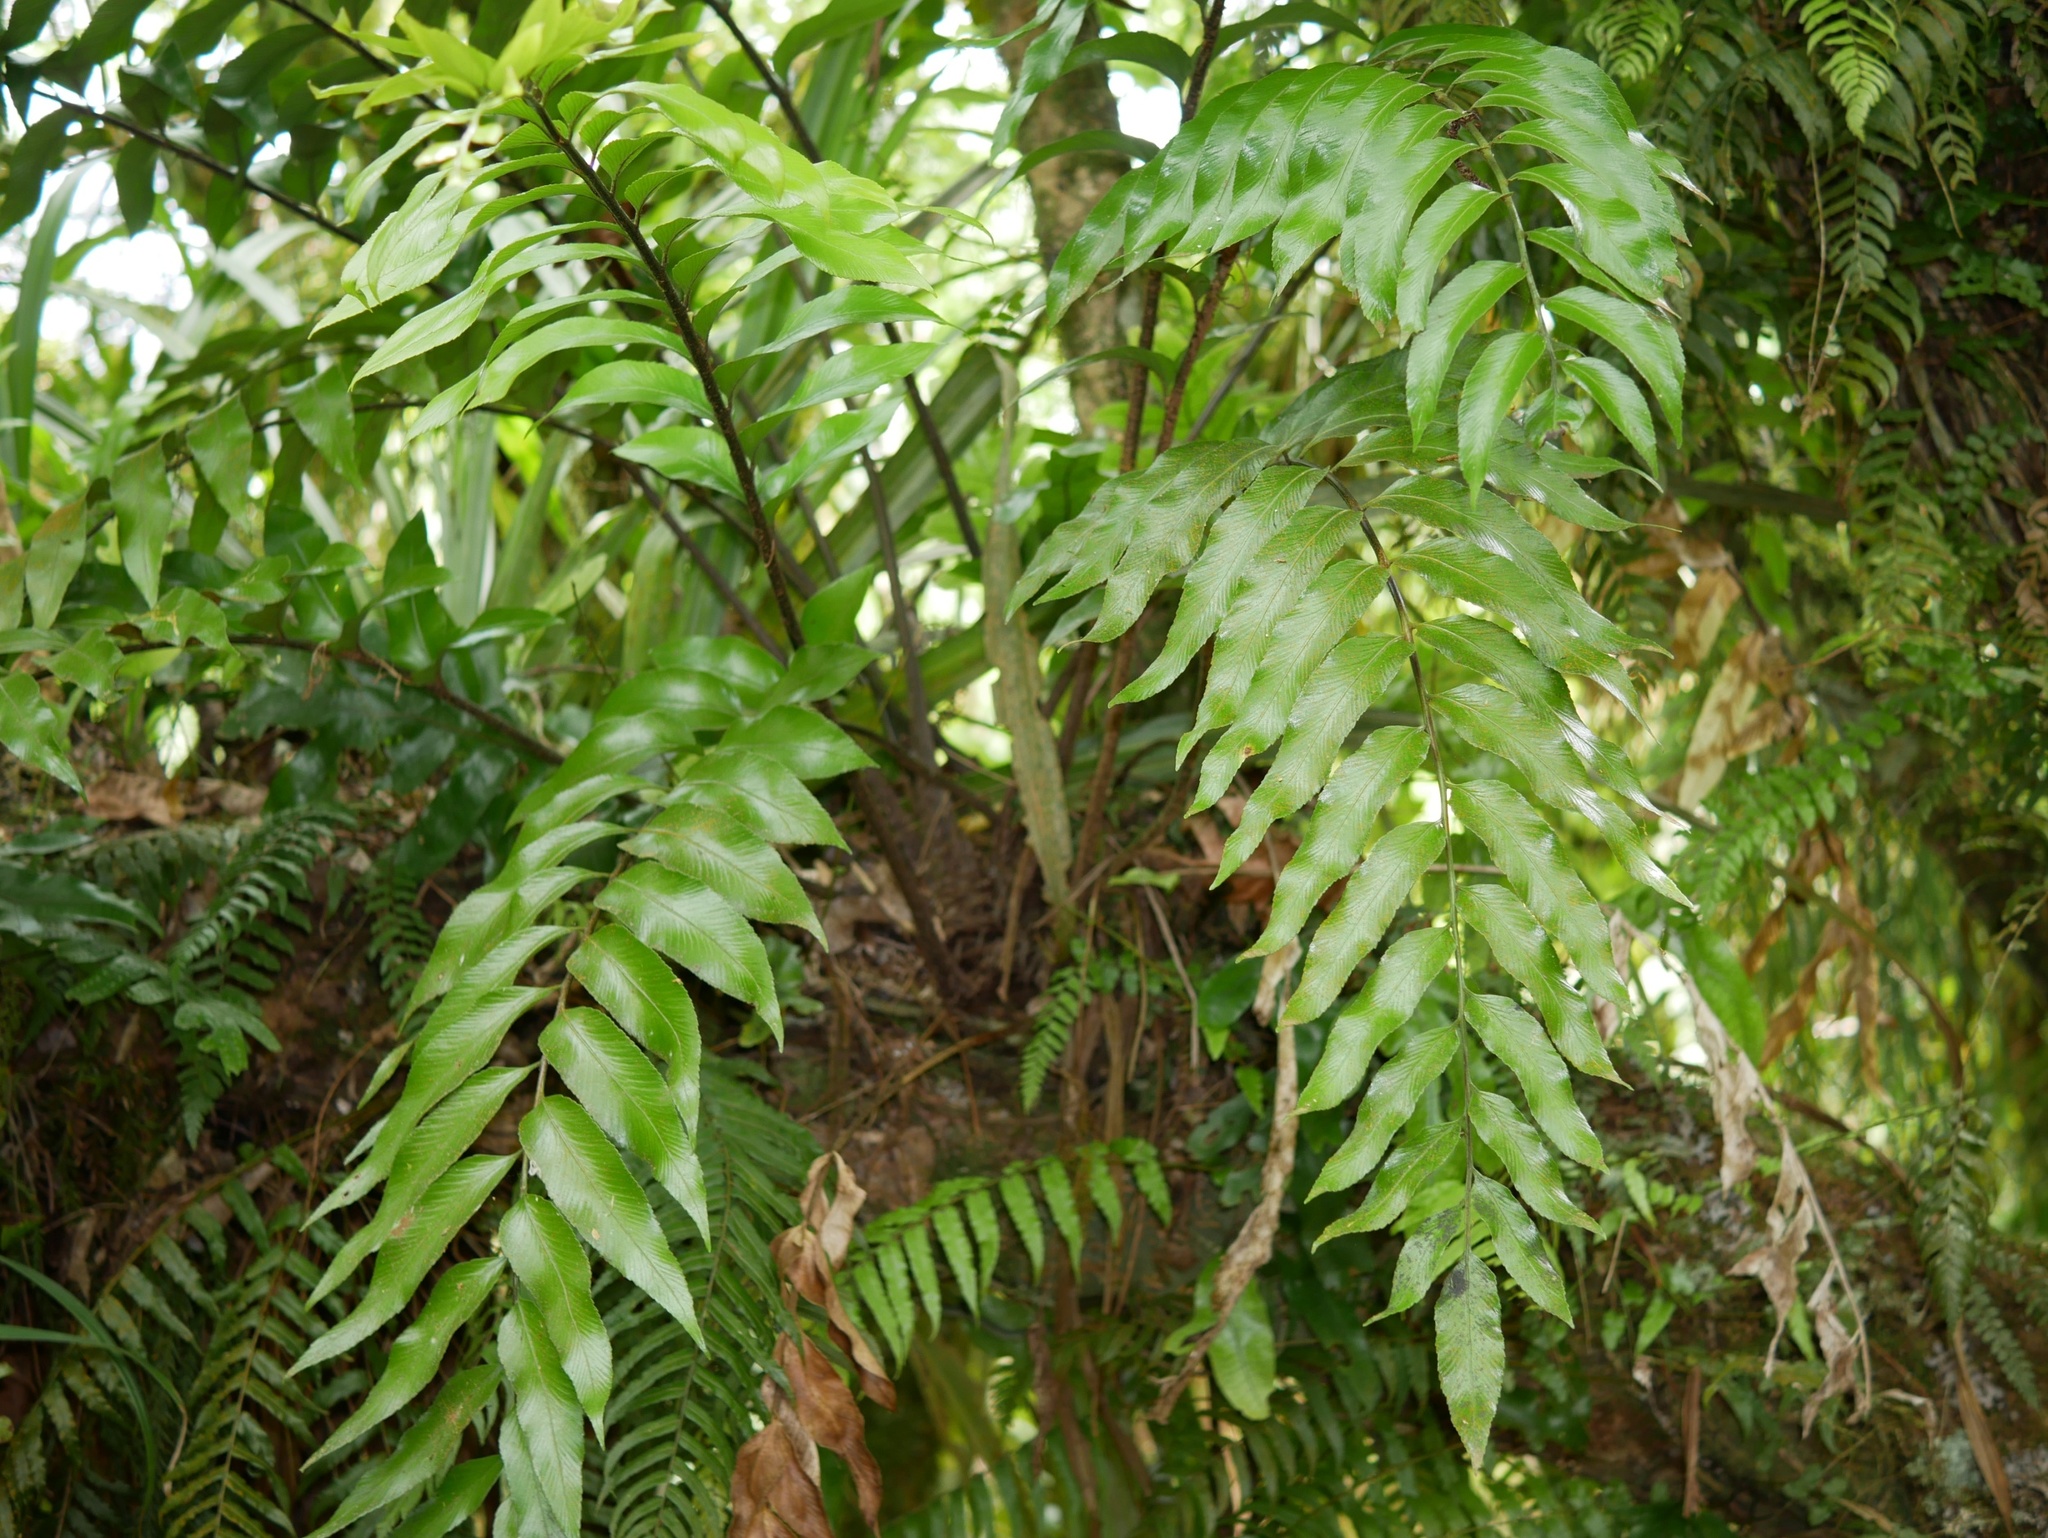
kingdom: Plantae
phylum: Tracheophyta
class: Polypodiopsida
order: Polypodiales
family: Aspleniaceae
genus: Asplenium
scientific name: Asplenium oblongifolium
